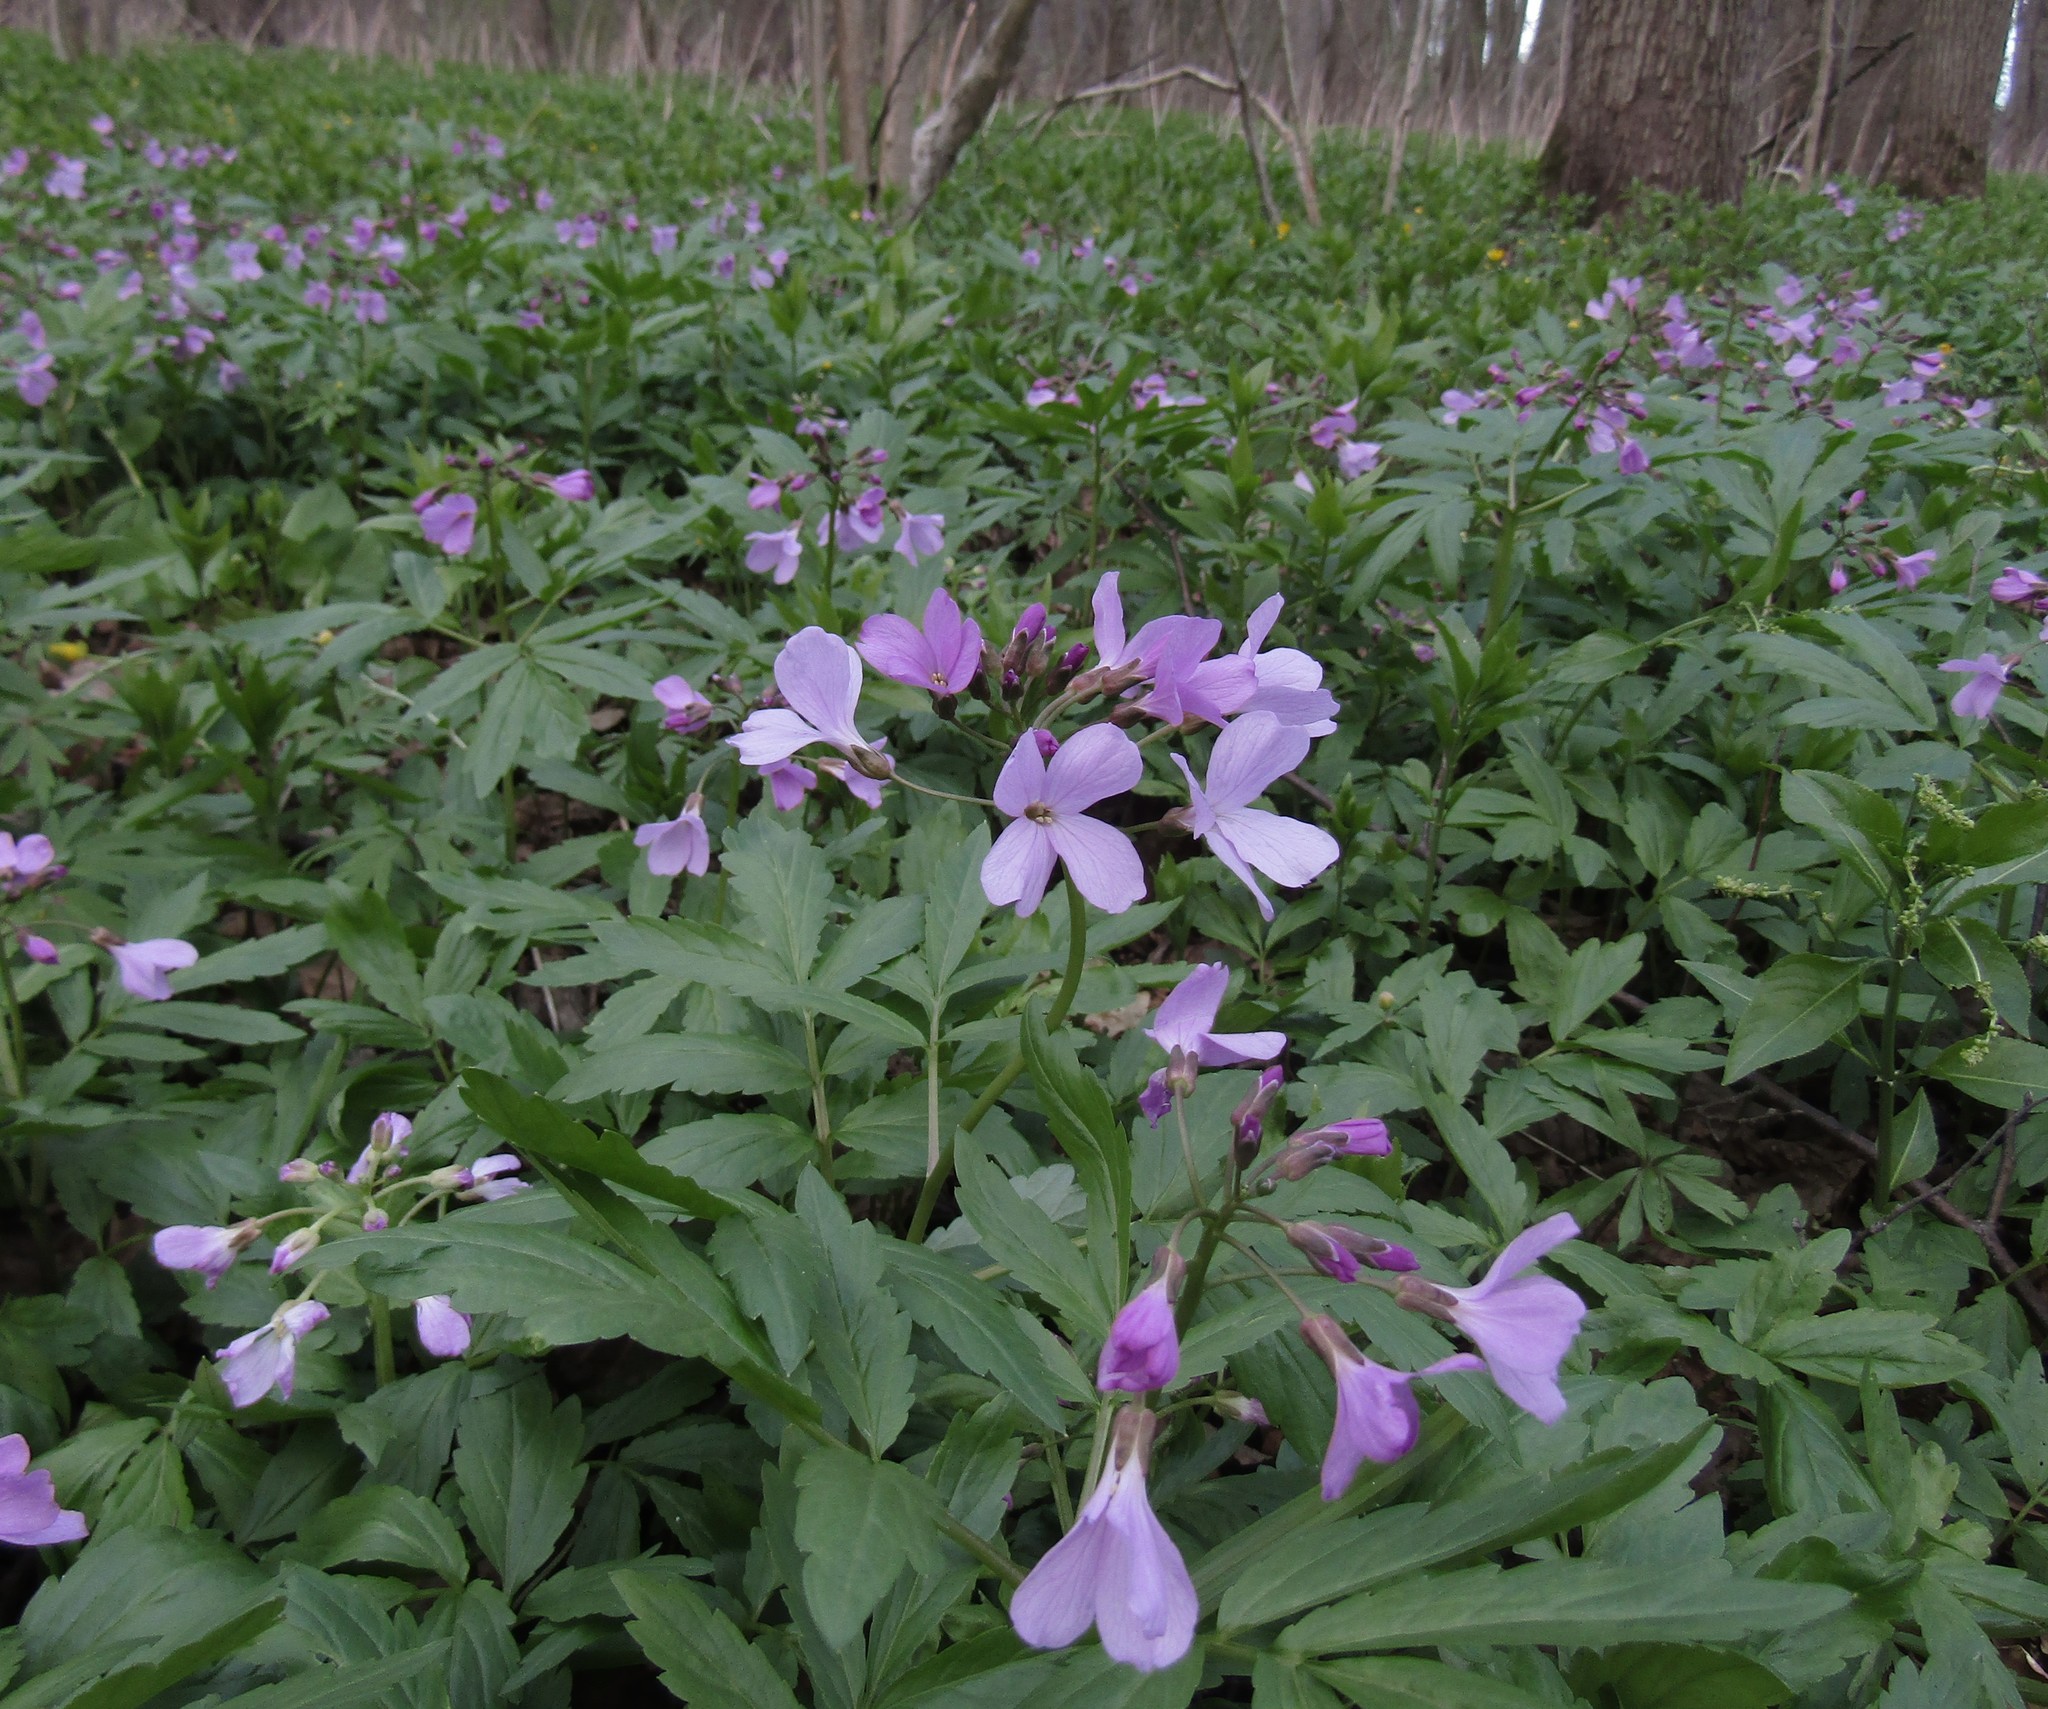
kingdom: Plantae
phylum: Tracheophyta
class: Magnoliopsida
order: Brassicales
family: Brassicaceae
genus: Cardamine
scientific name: Cardamine quinquefolia
